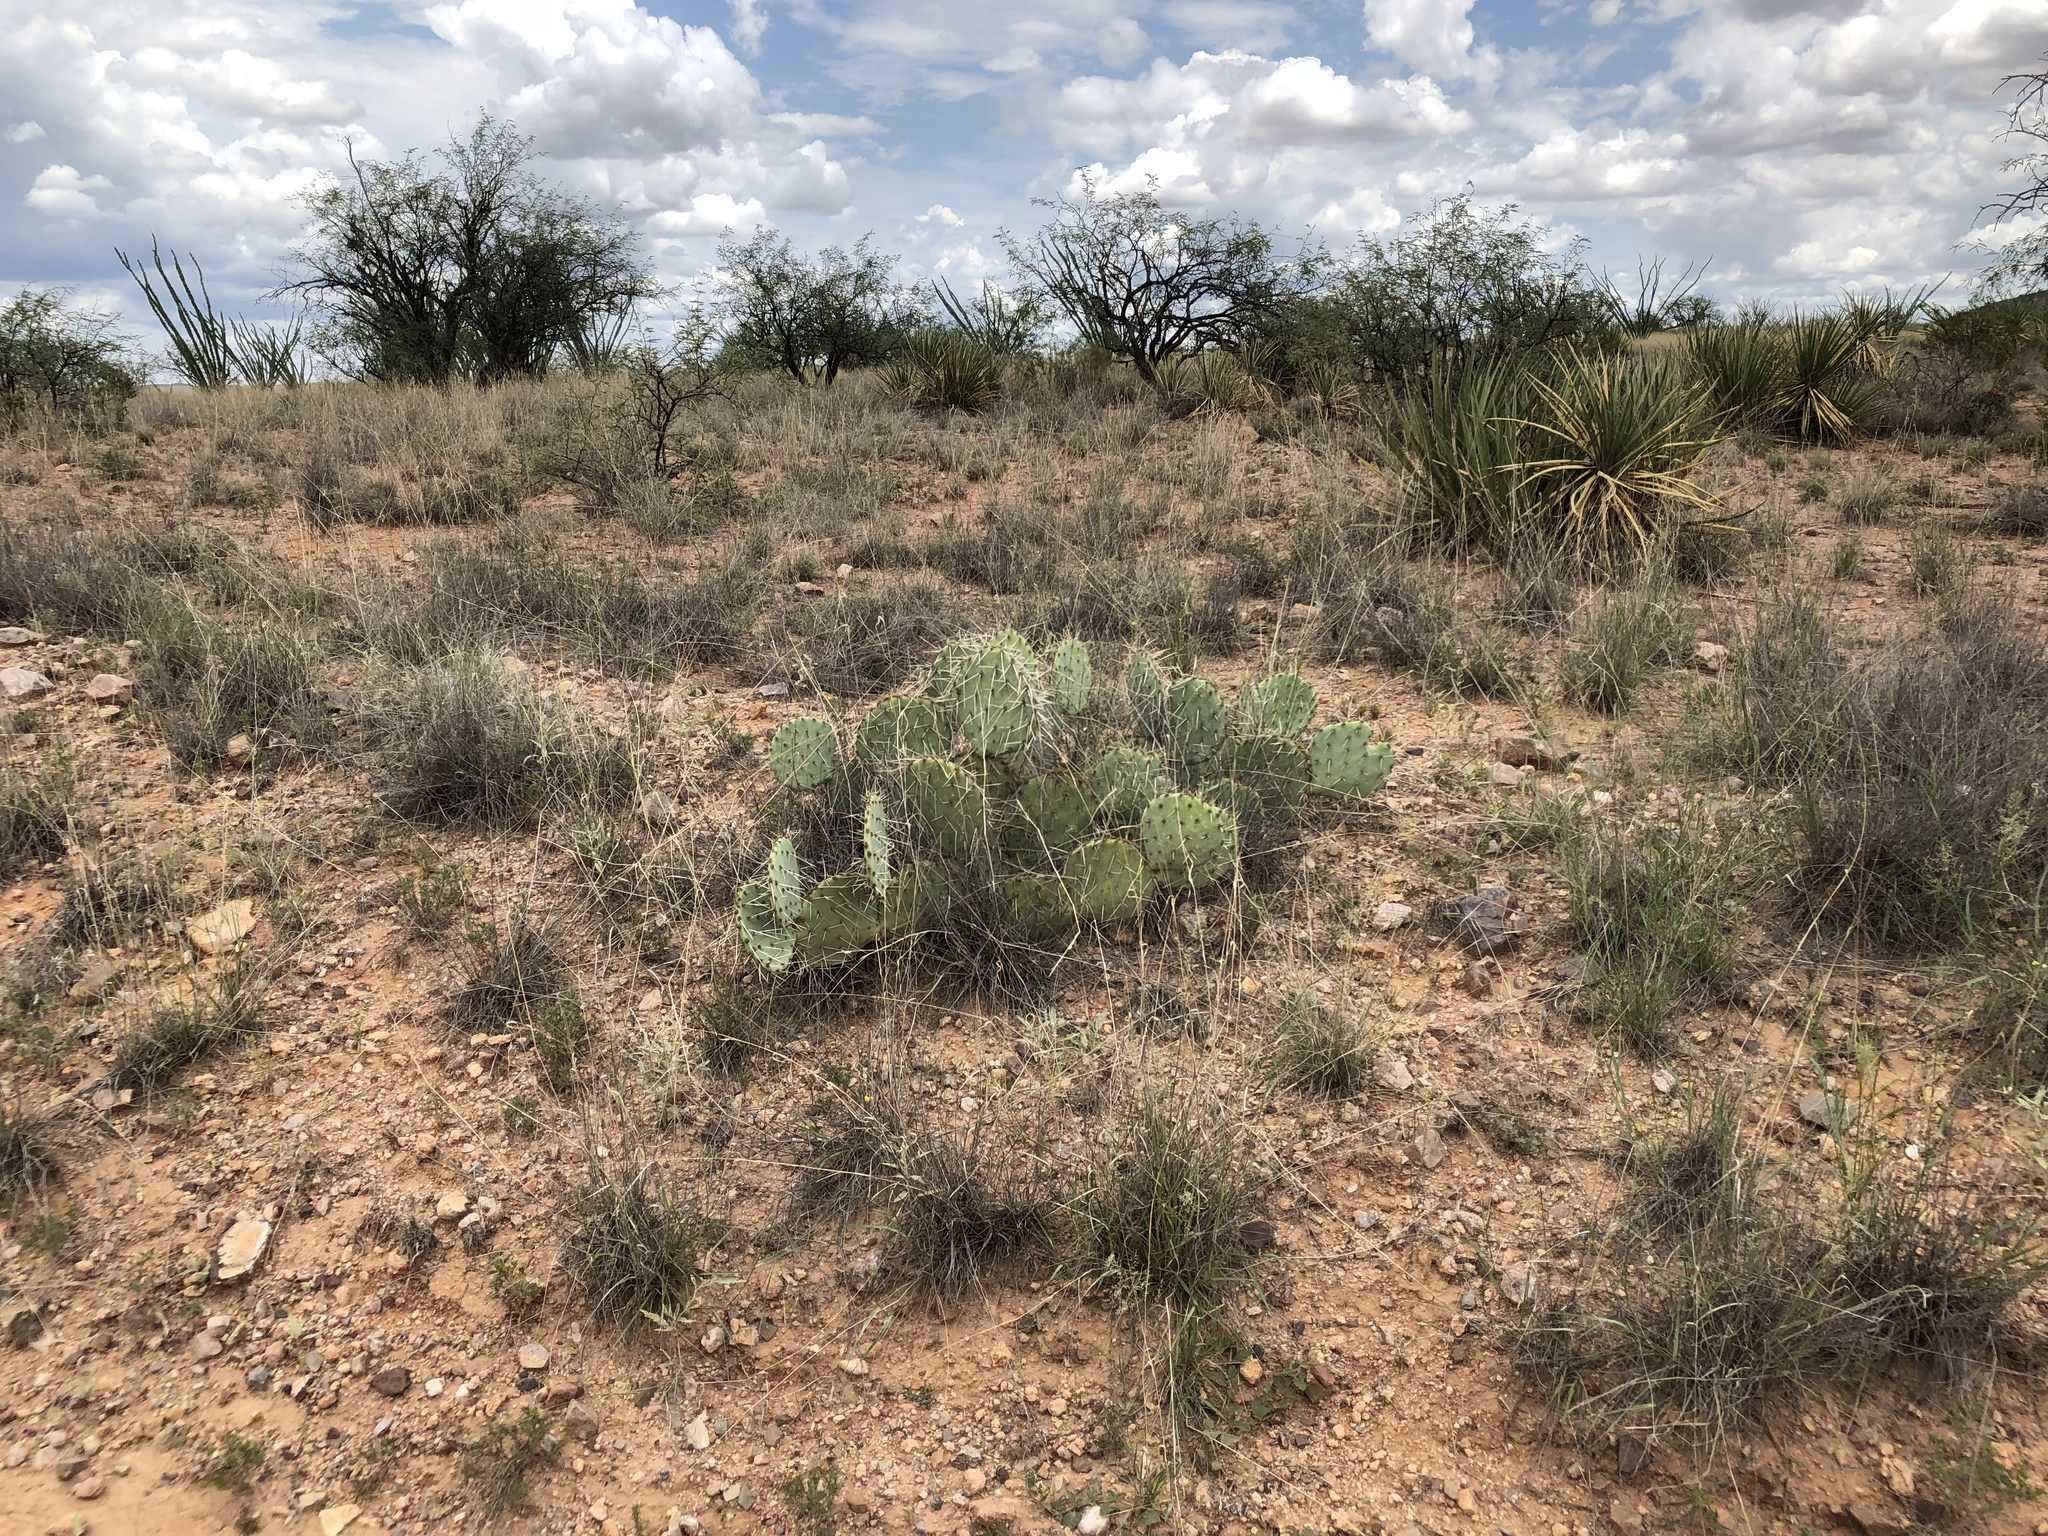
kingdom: Plantae
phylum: Tracheophyta
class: Magnoliopsida
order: Caryophyllales
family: Cactaceae
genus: Opuntia
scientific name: Opuntia engelmannii
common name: Cactus-apple
